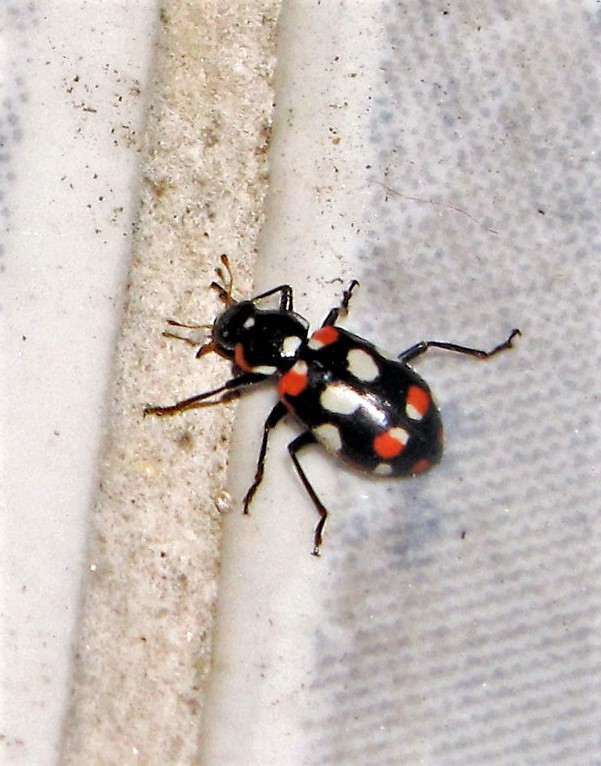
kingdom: Animalia
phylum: Arthropoda
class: Insecta
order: Coleoptera
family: Coccinellidae
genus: Eriopis
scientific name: Eriopis connexa
